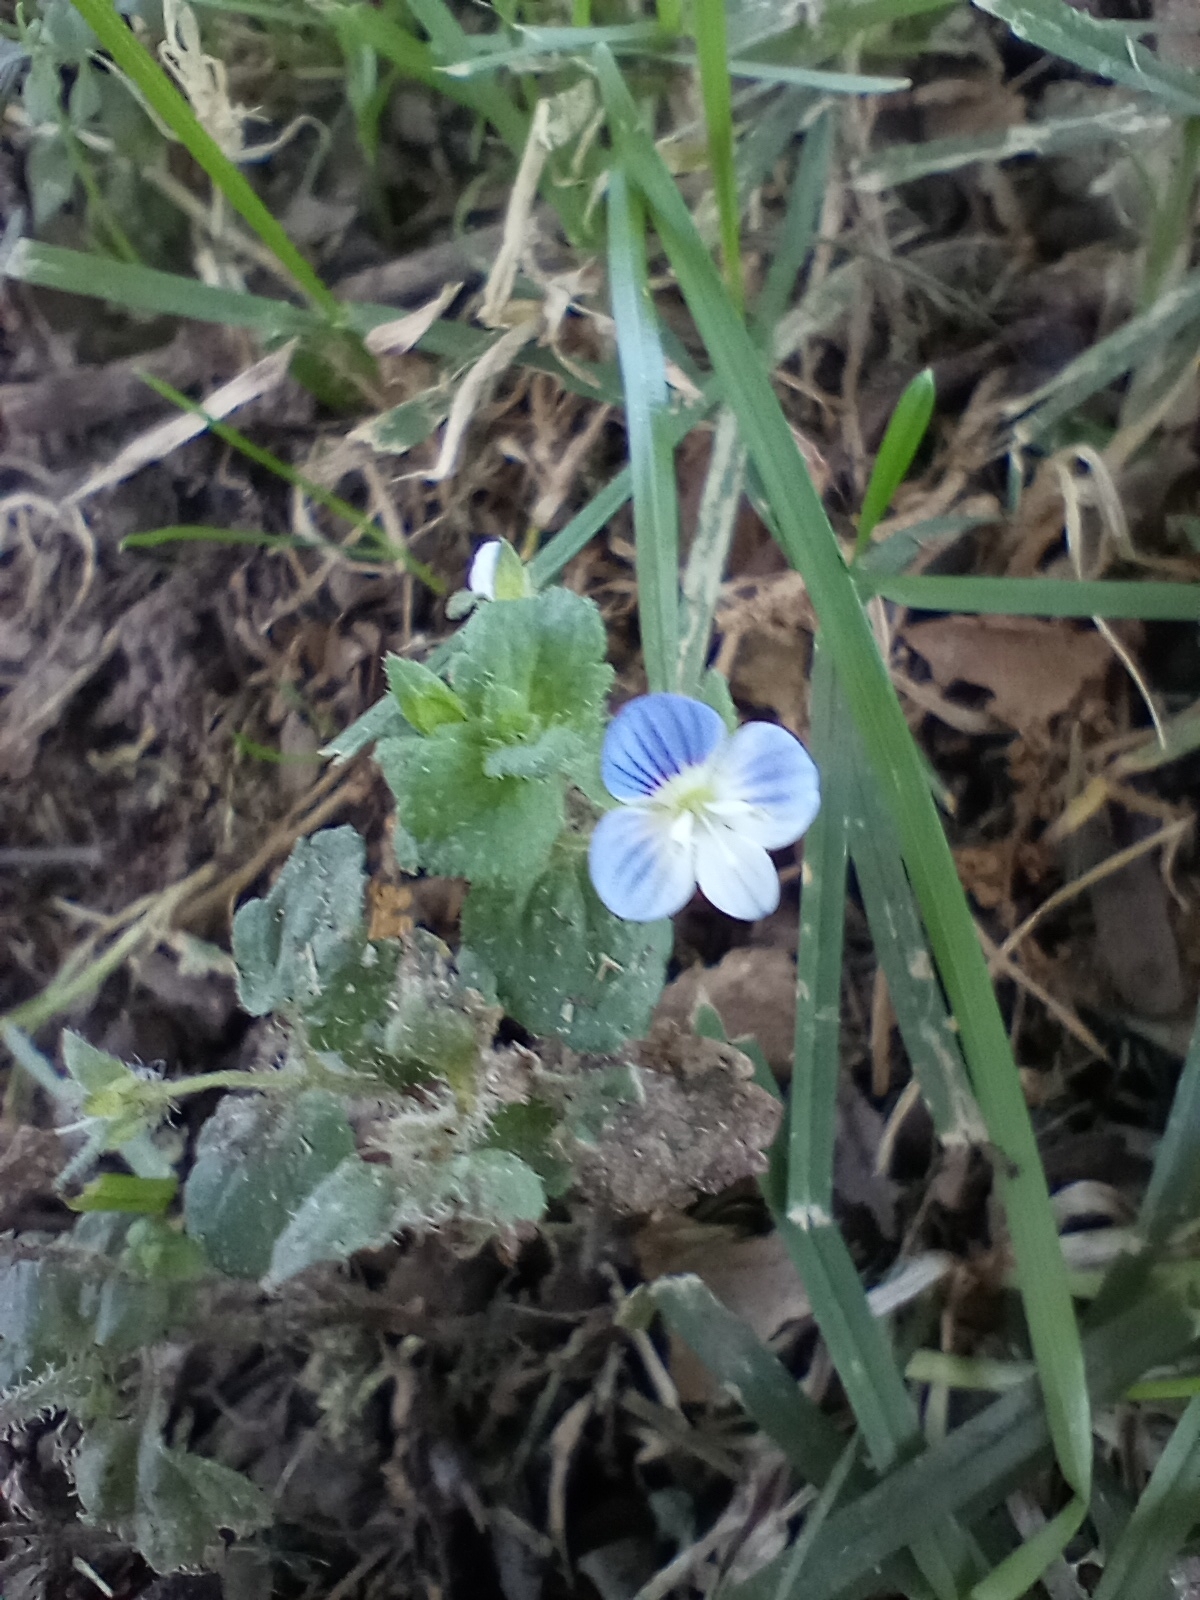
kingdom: Plantae
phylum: Tracheophyta
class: Magnoliopsida
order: Lamiales
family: Plantaginaceae
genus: Veronica
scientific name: Veronica persica
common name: Common field-speedwell
